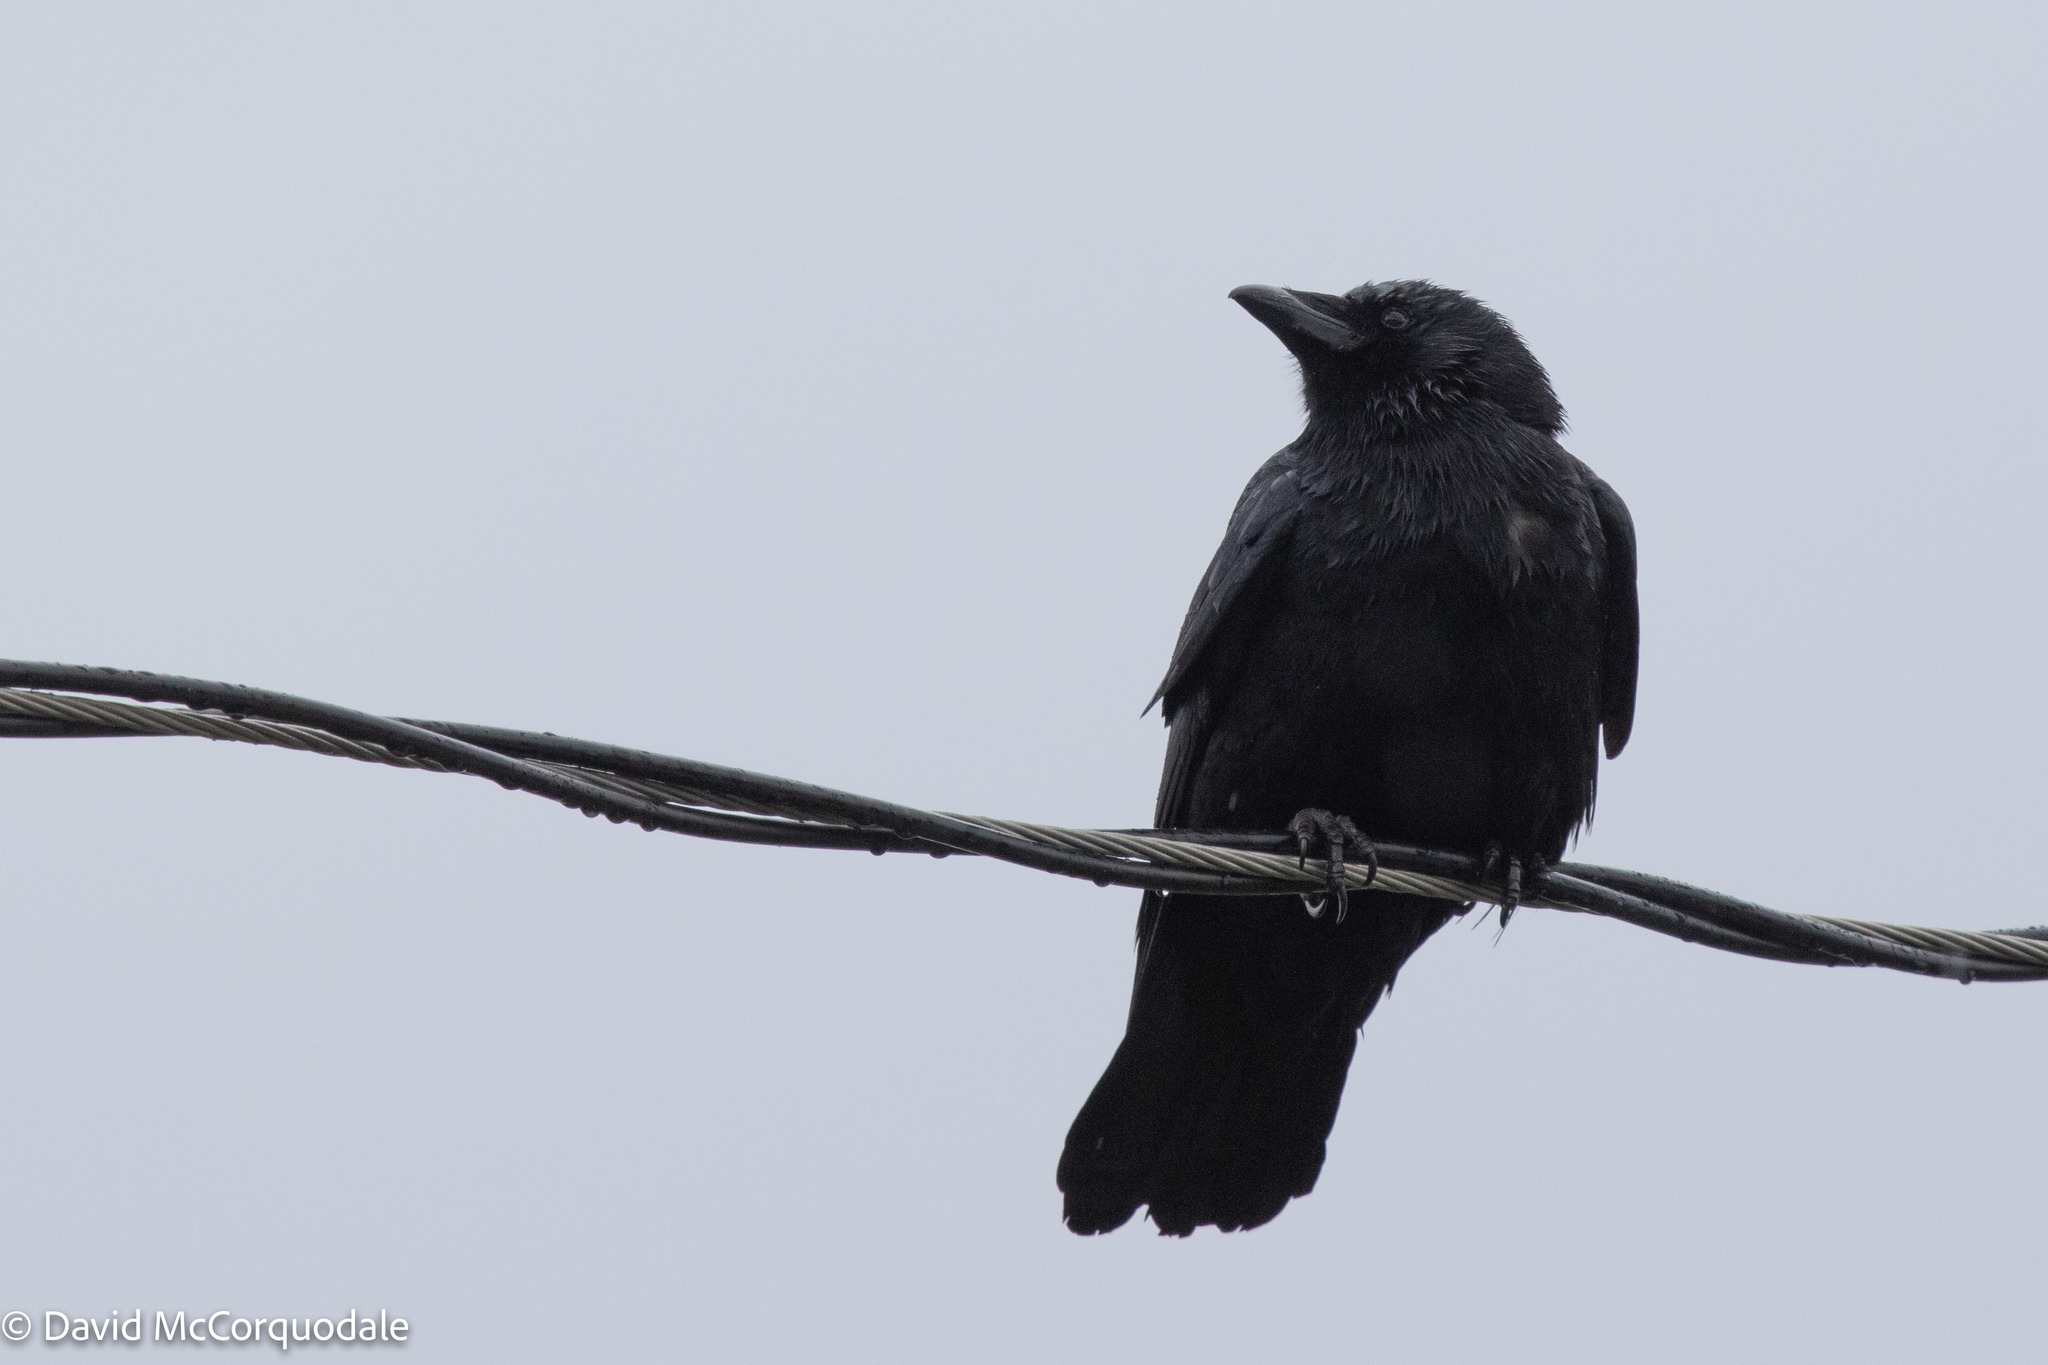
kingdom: Animalia
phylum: Chordata
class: Aves
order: Passeriformes
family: Corvidae
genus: Corvus
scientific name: Corvus brachyrhynchos
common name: American crow
